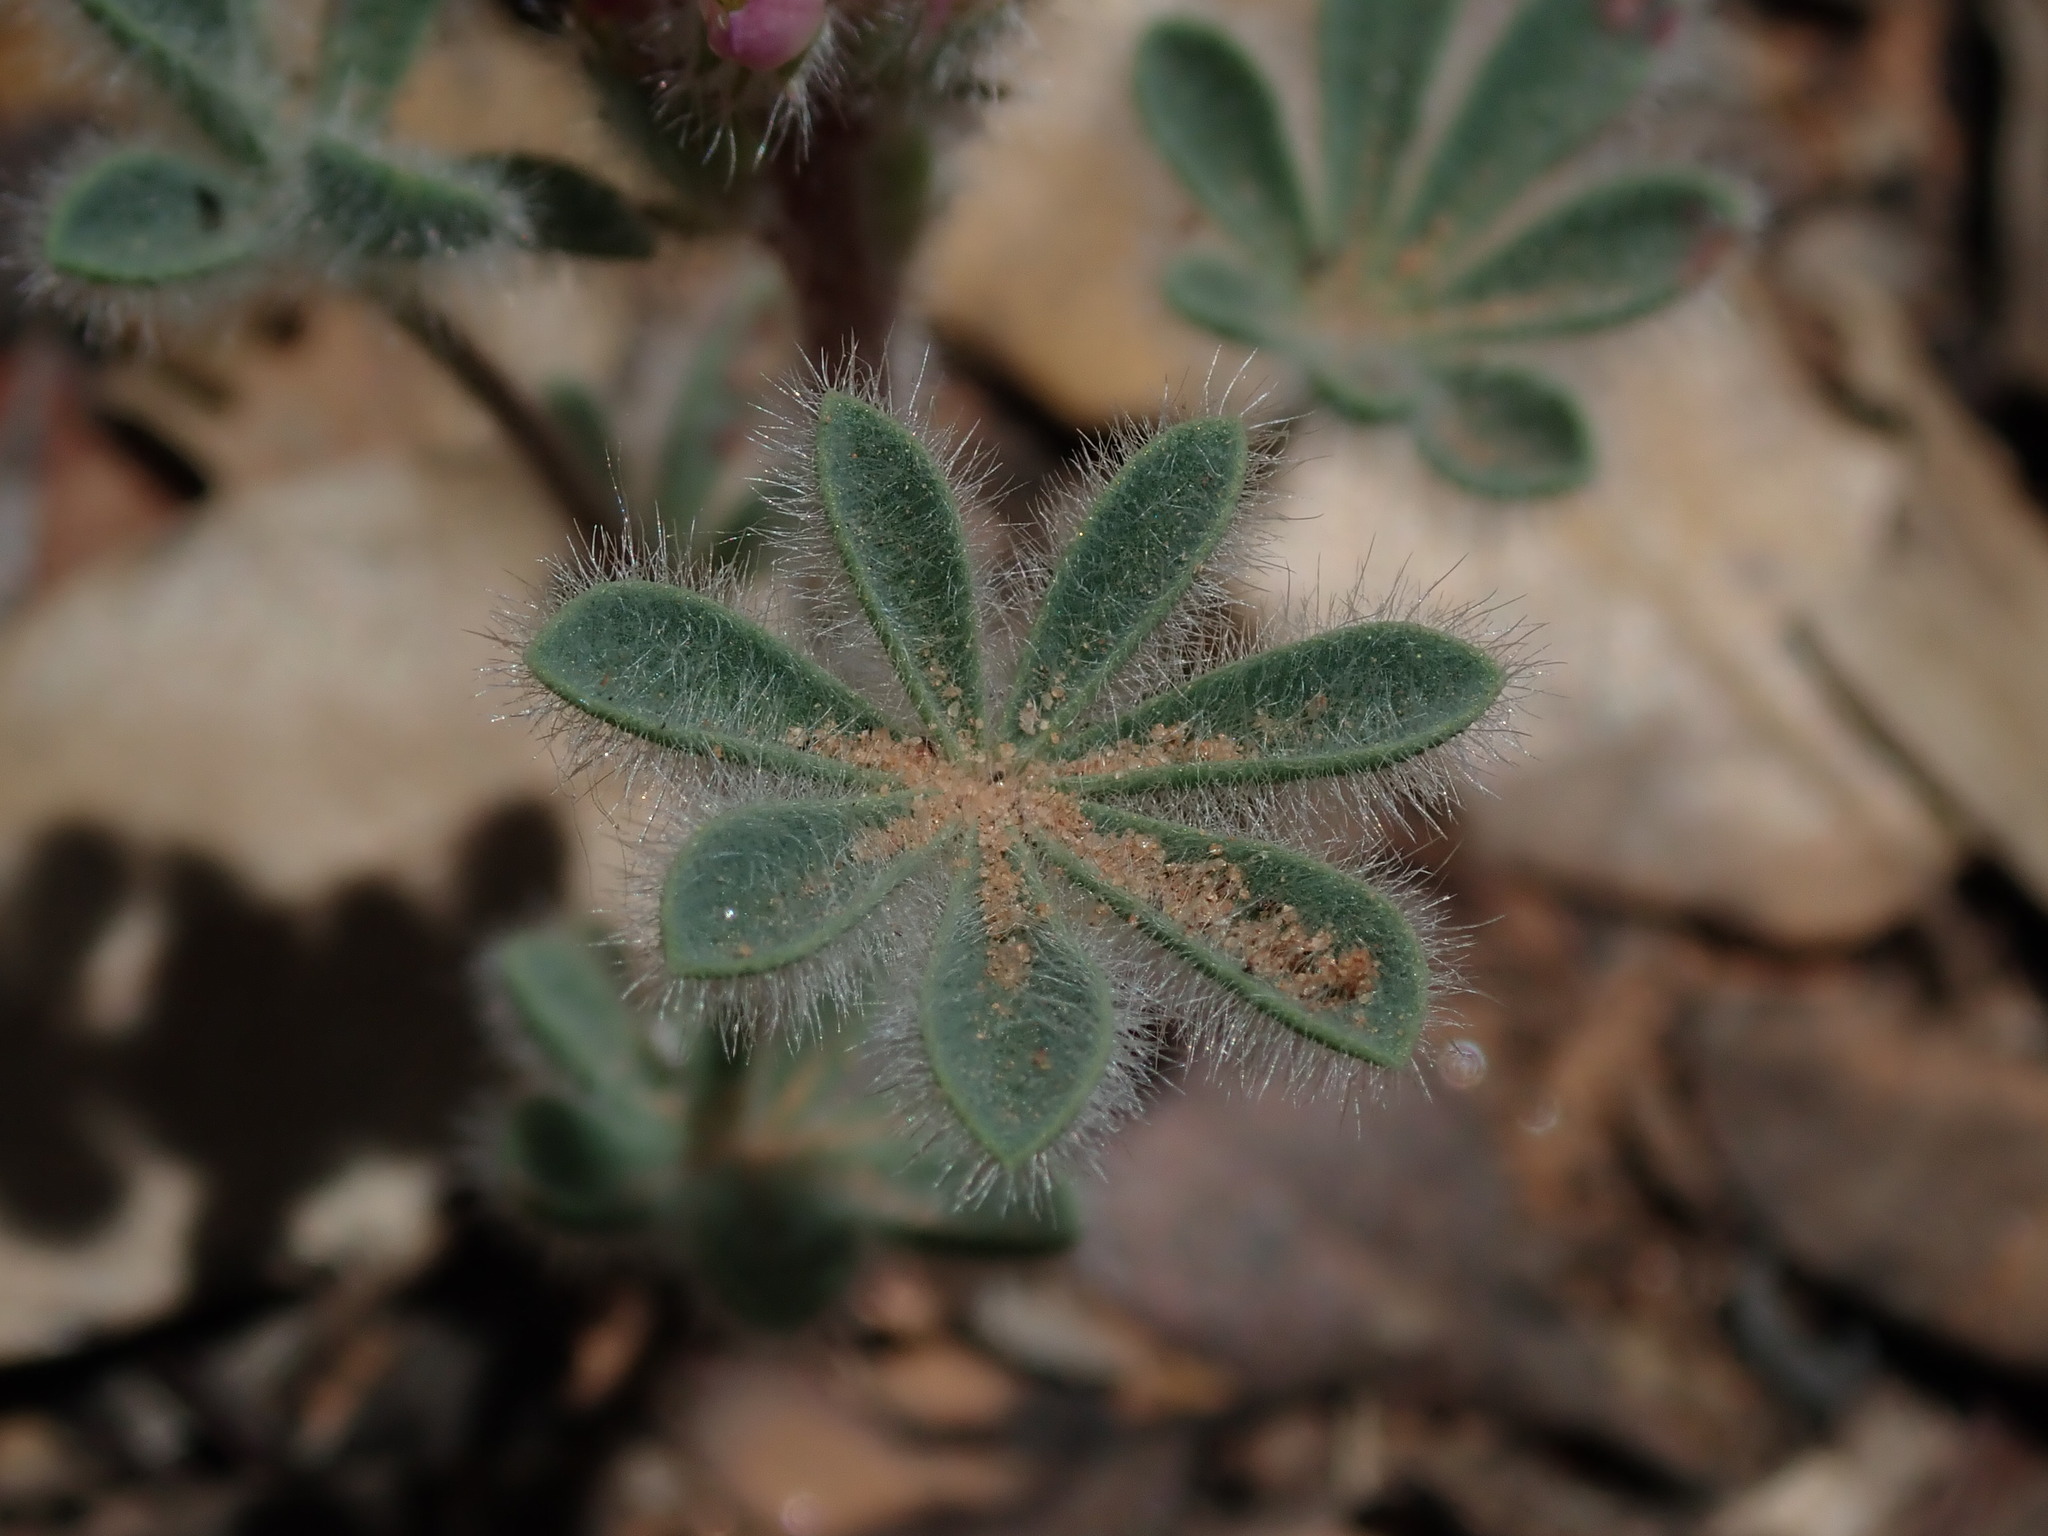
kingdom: Plantae
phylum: Tracheophyta
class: Magnoliopsida
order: Fabales
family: Fabaceae
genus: Lupinus
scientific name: Lupinus concinnus
